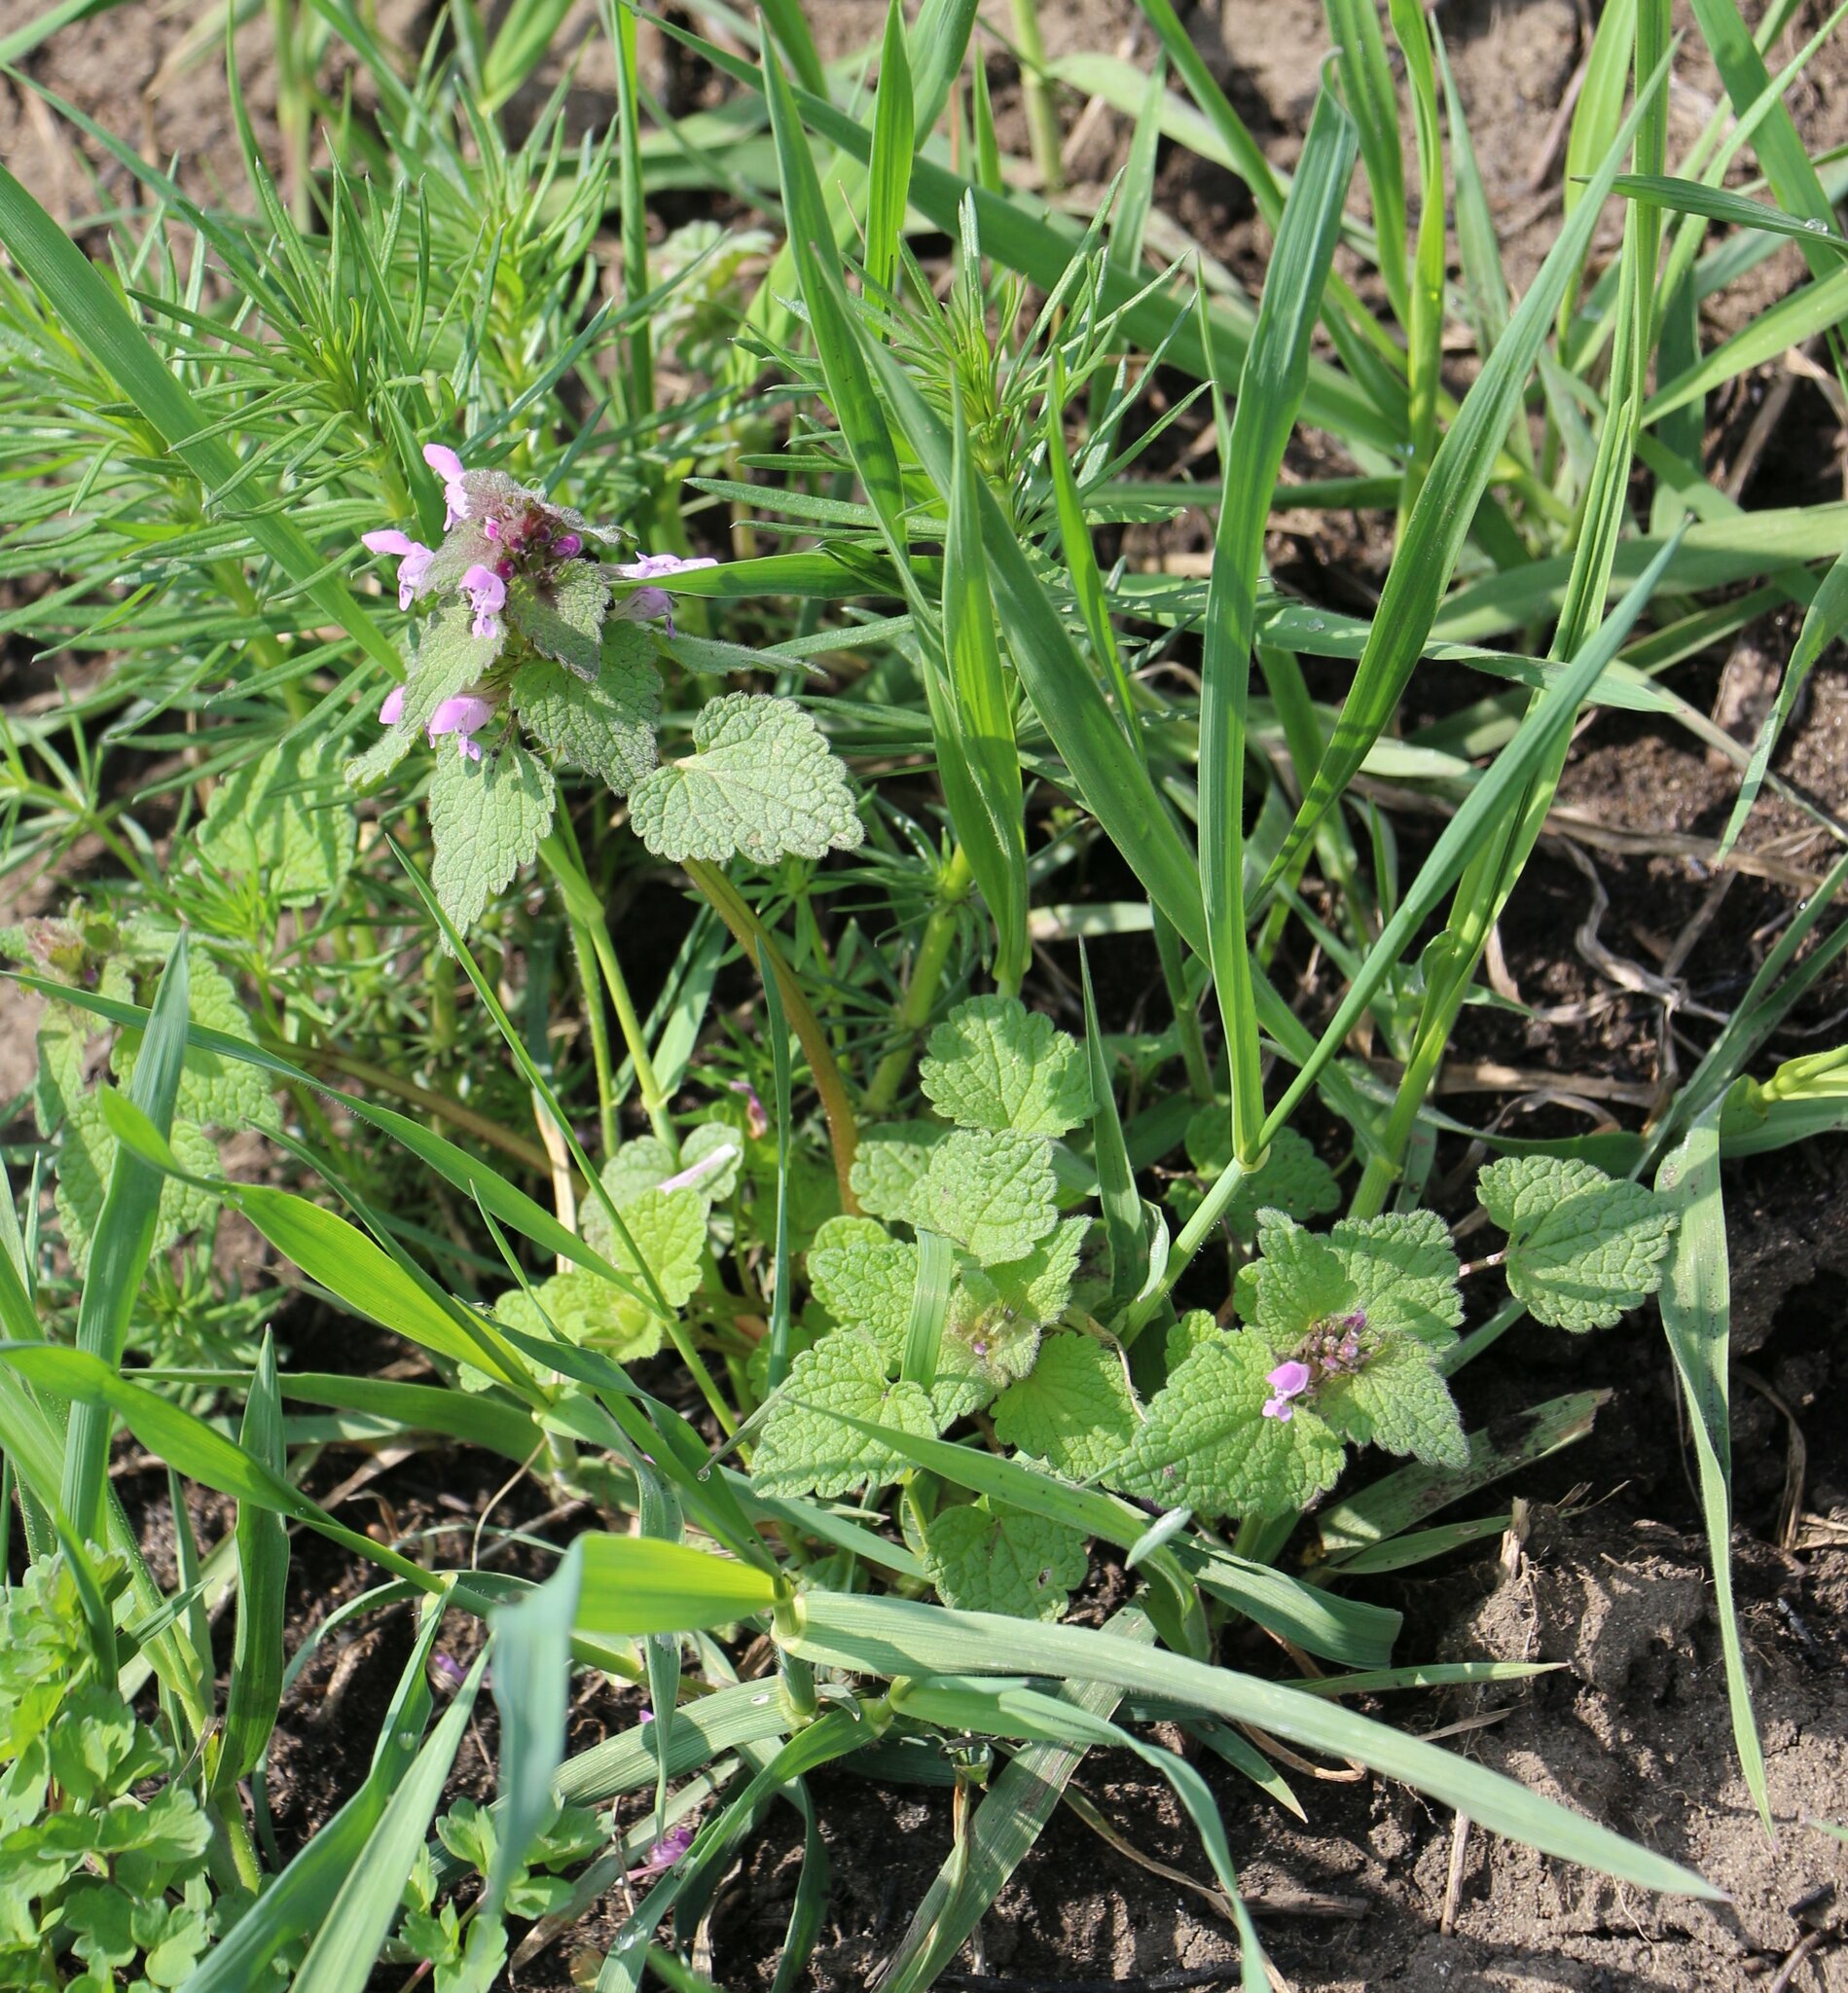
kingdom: Plantae
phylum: Tracheophyta
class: Magnoliopsida
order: Lamiales
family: Lamiaceae
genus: Lamium
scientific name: Lamium purpureum
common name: Red dead-nettle
